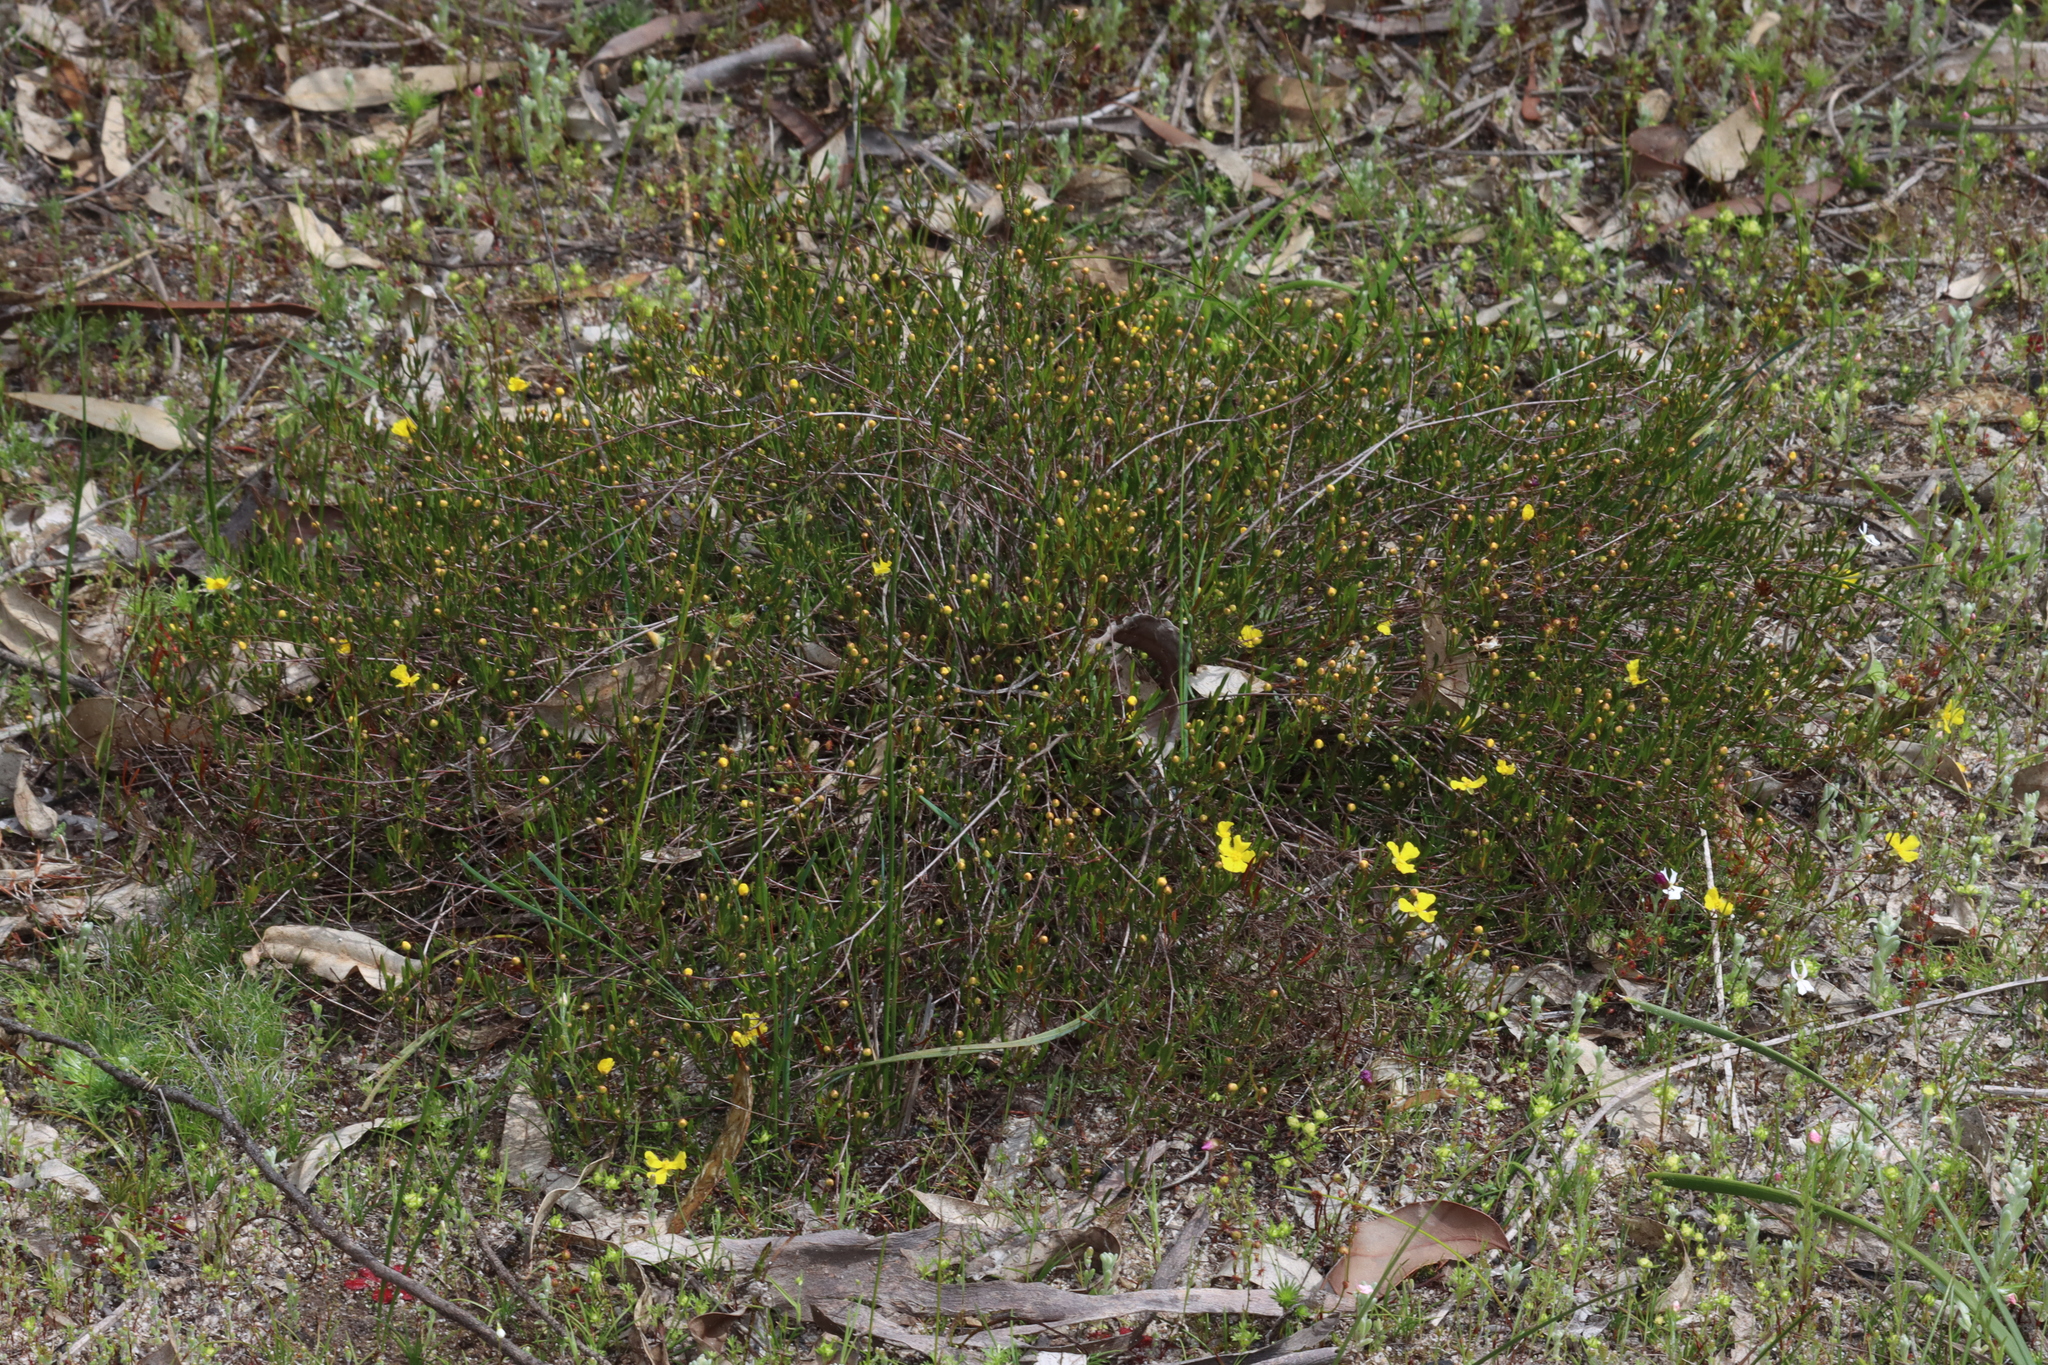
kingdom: Plantae
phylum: Tracheophyta
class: Magnoliopsida
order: Dilleniales
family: Dilleniaceae
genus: Hibbertia
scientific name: Hibbertia stellaris
